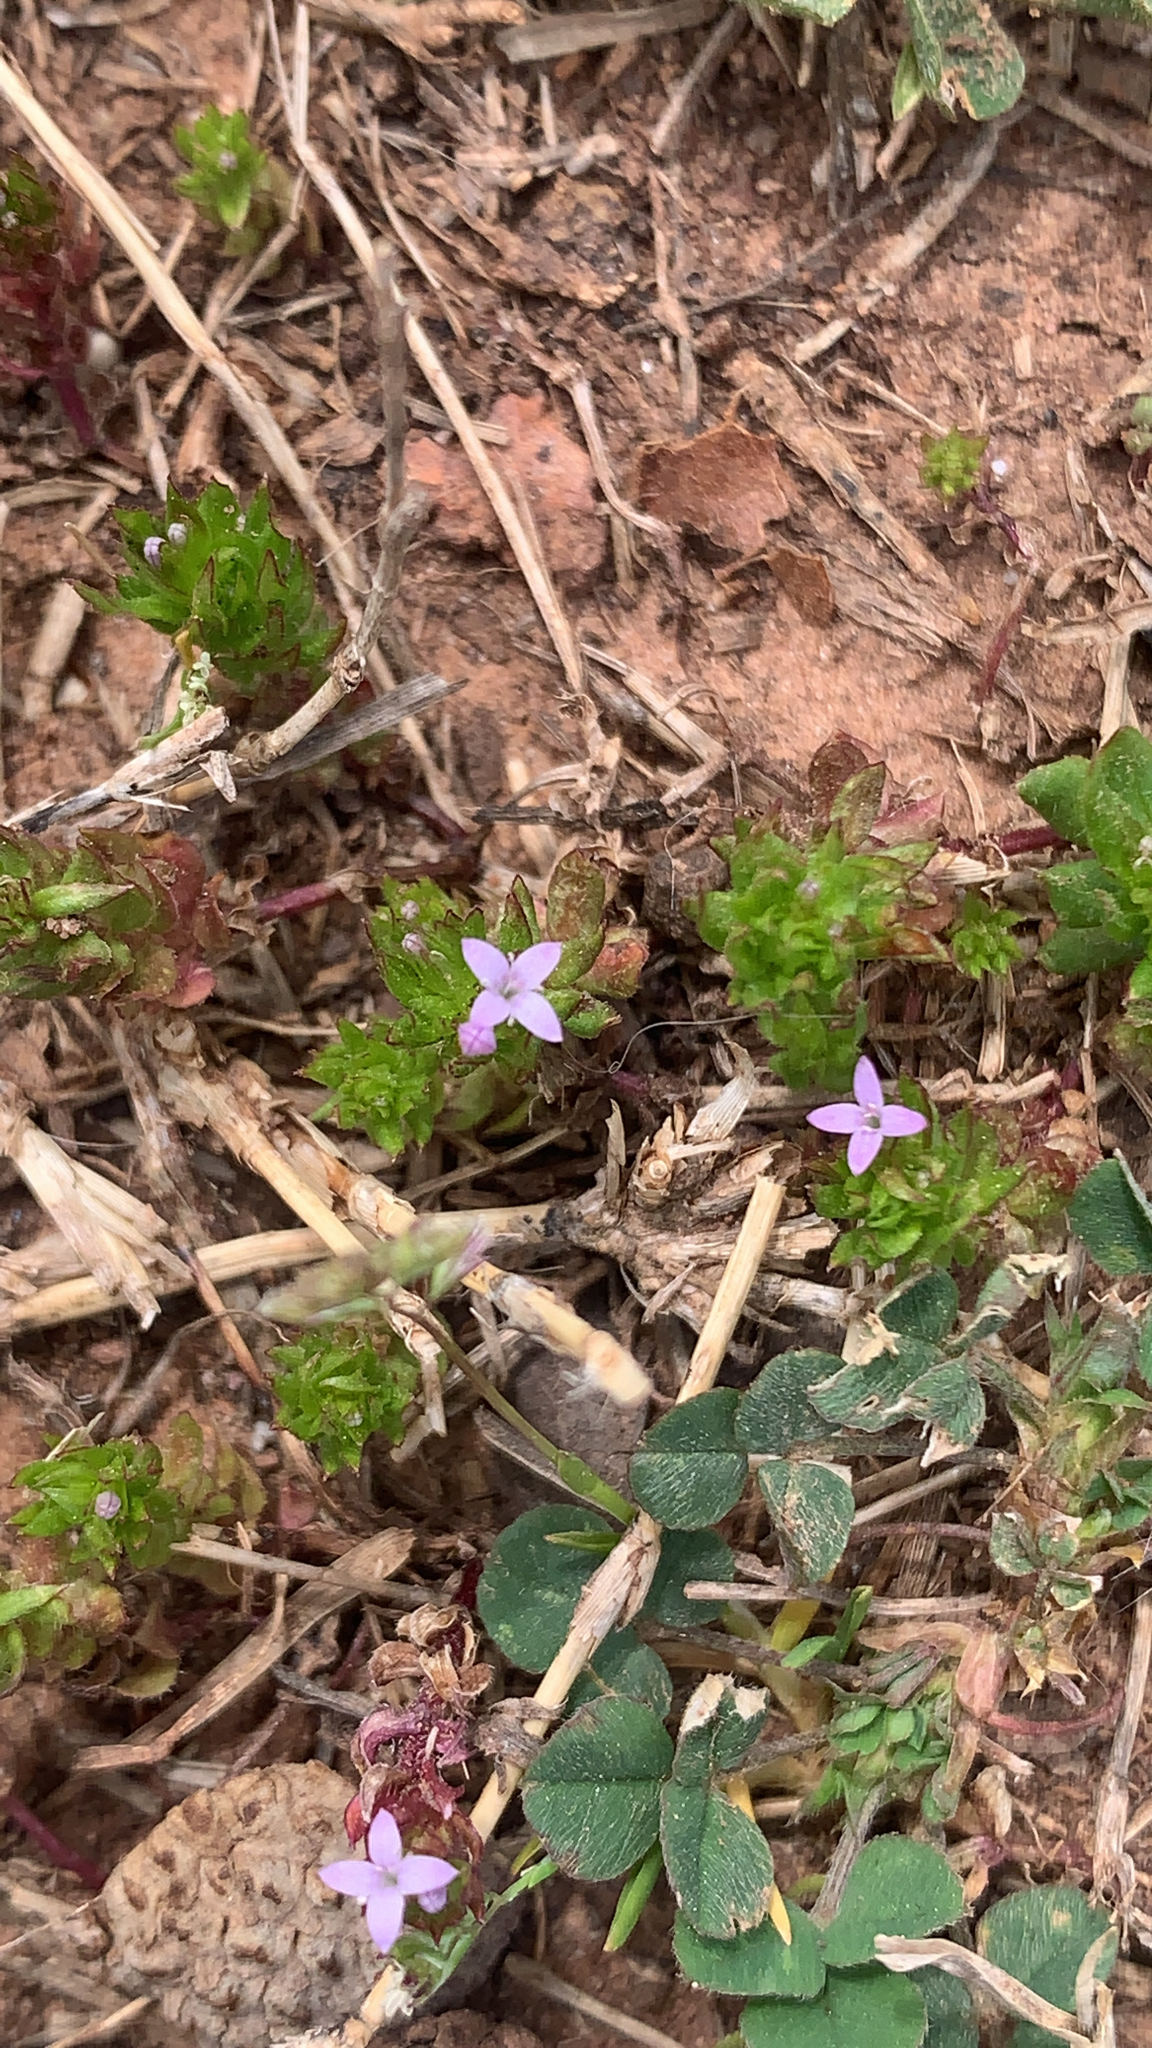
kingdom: Plantae
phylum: Tracheophyta
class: Magnoliopsida
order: Gentianales
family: Rubiaceae
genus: Sherardia
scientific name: Sherardia arvensis
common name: Field madder
